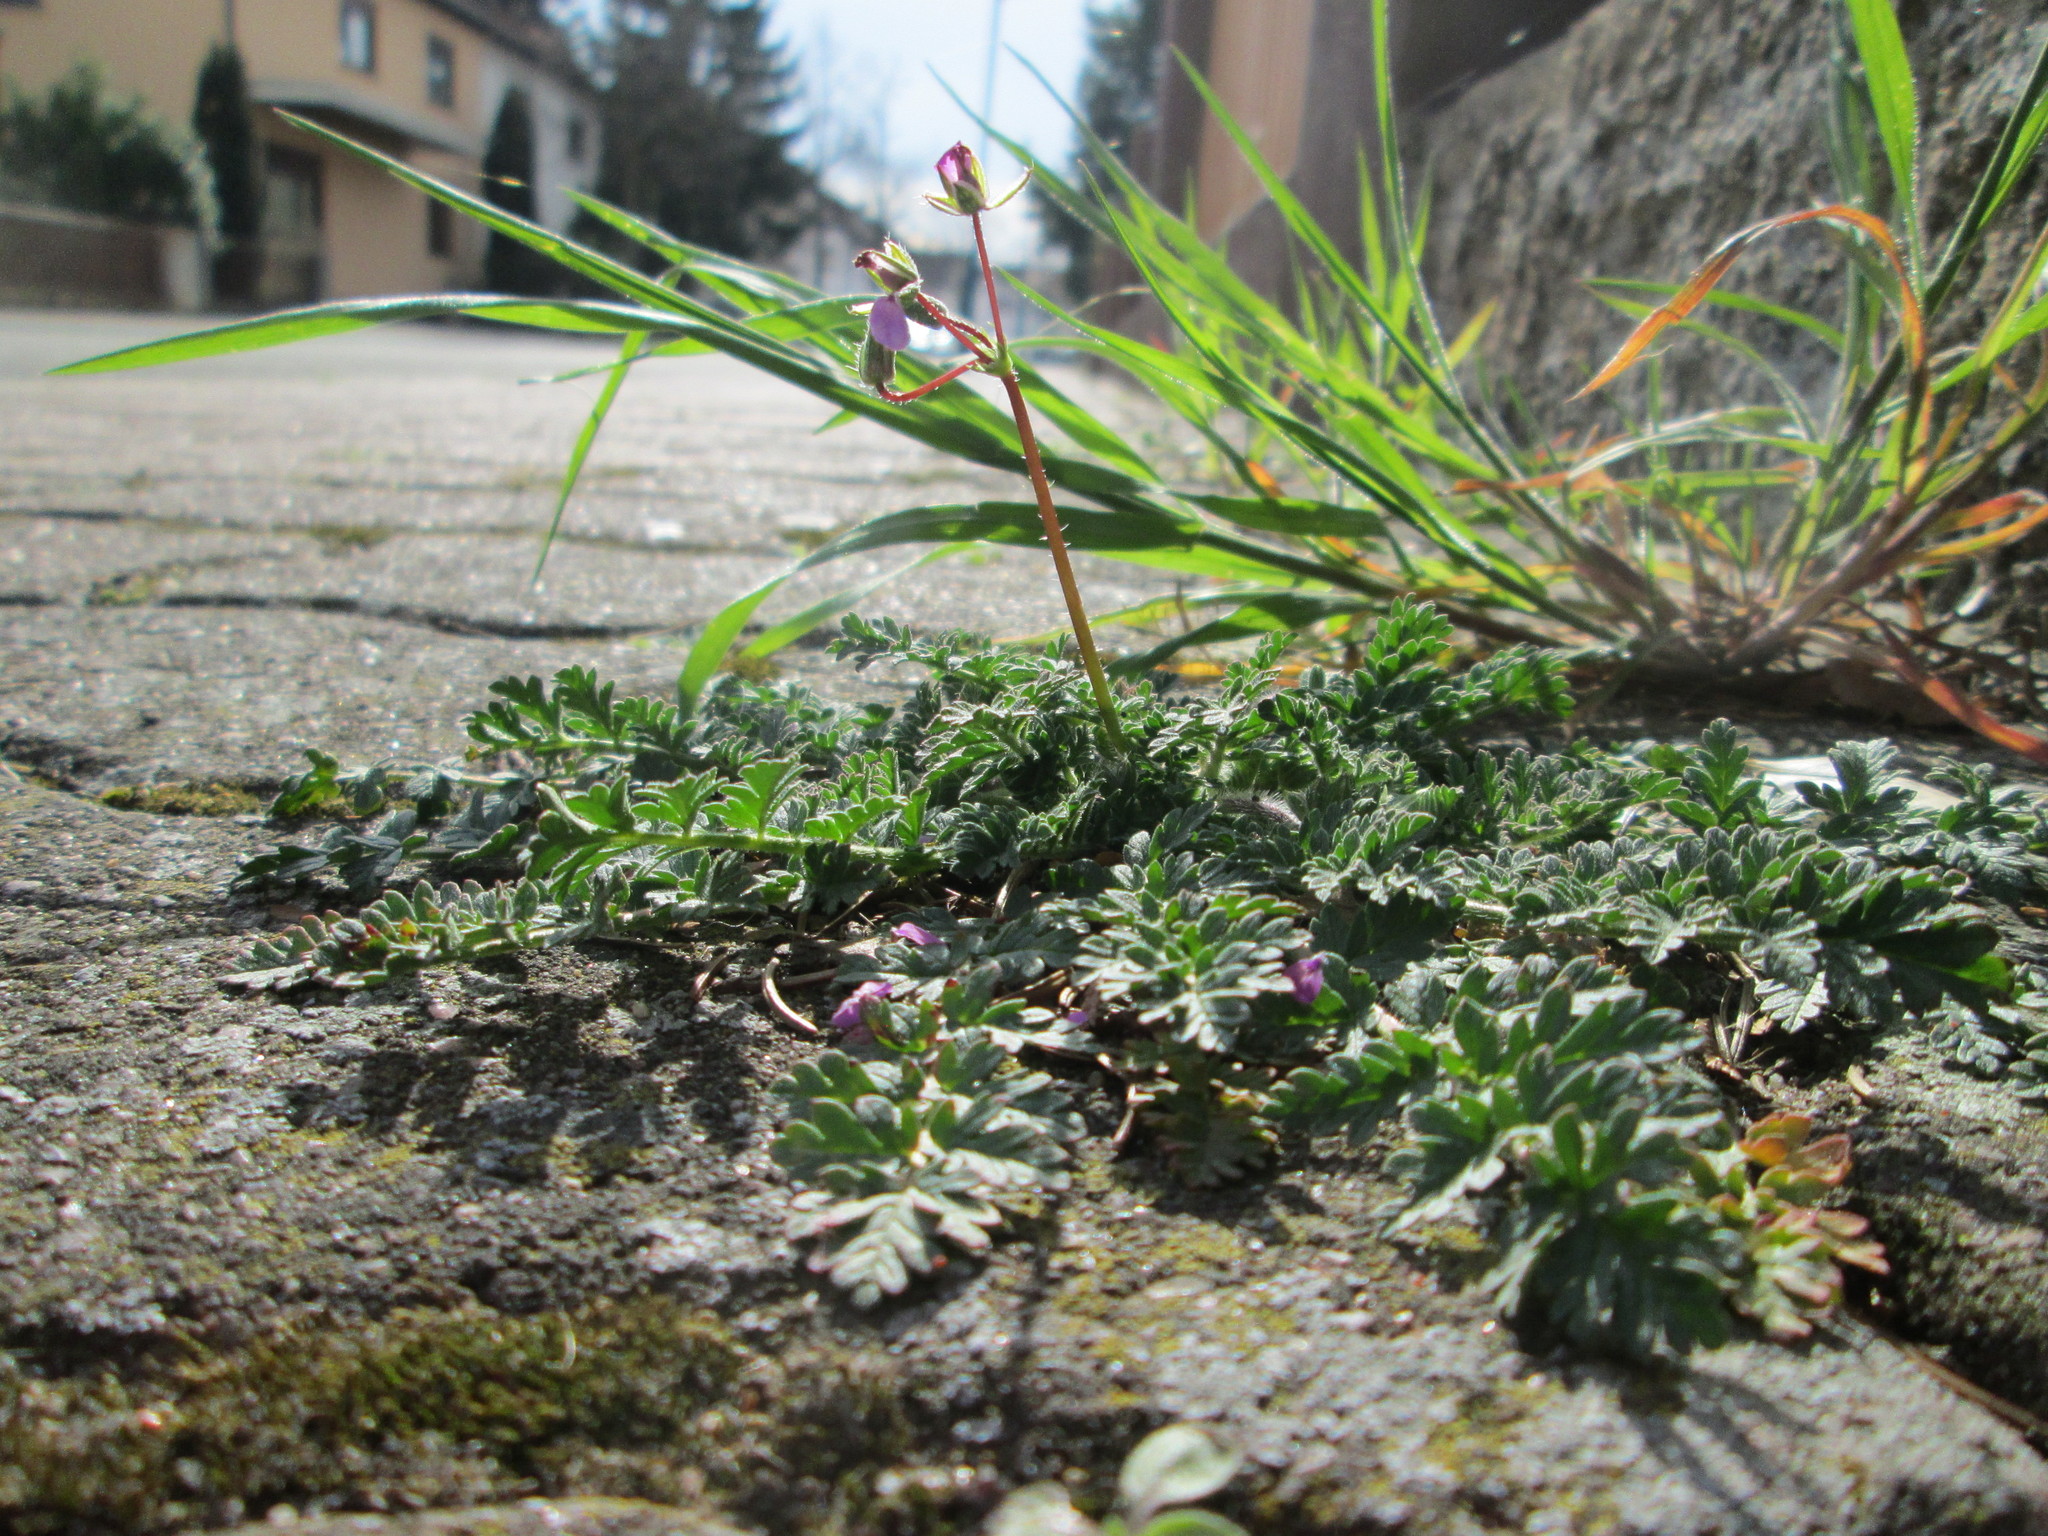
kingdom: Plantae
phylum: Tracheophyta
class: Magnoliopsida
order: Geraniales
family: Geraniaceae
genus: Erodium
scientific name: Erodium cicutarium
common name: Common stork's-bill
